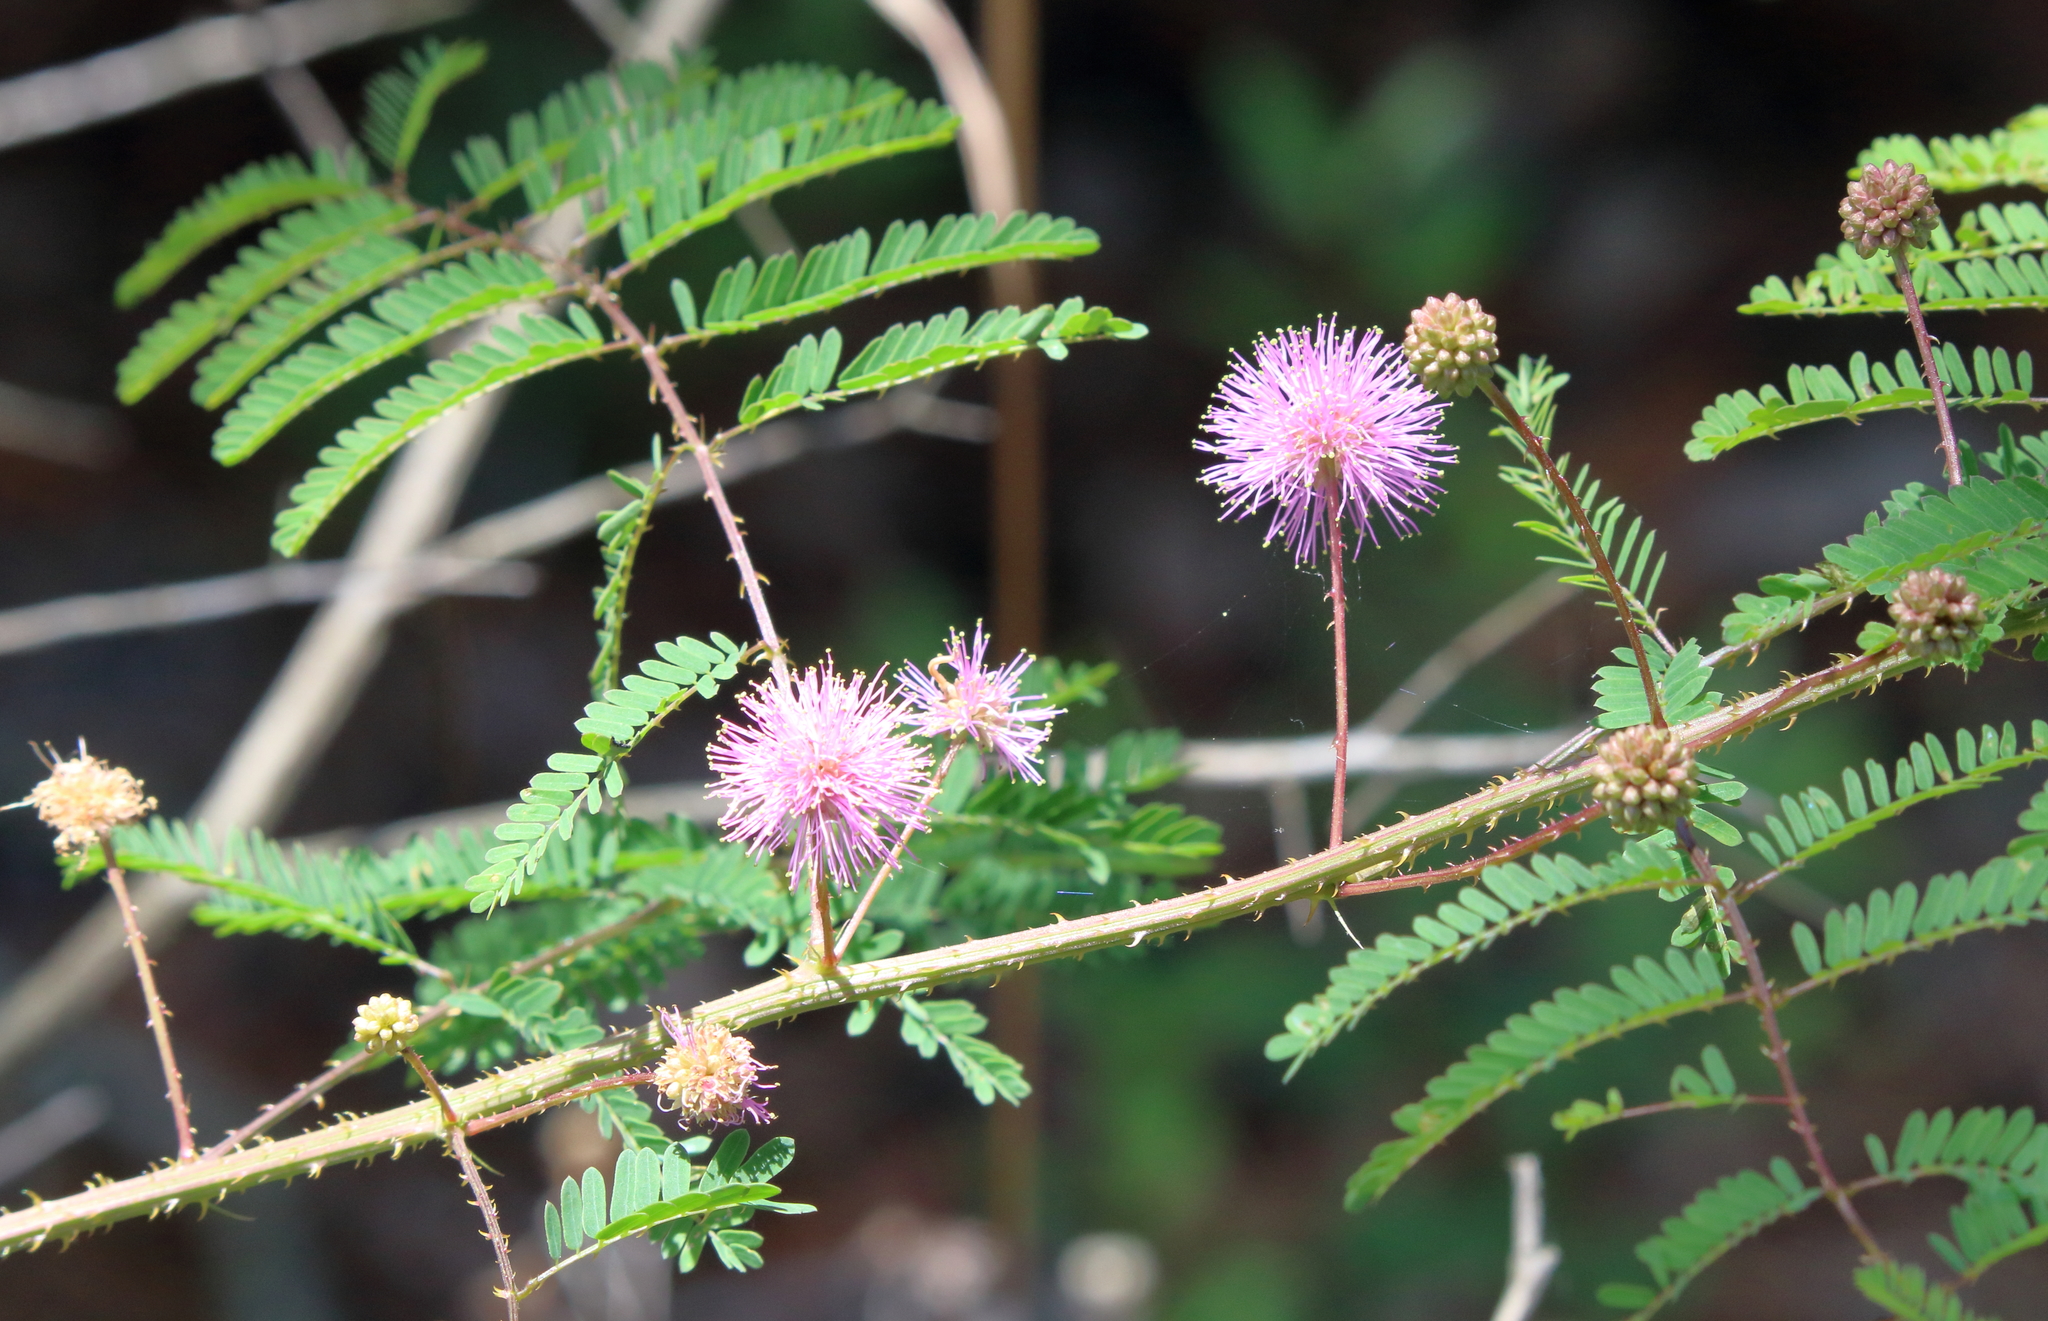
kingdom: Plantae
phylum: Tracheophyta
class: Magnoliopsida
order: Fabales
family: Fabaceae
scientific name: Fabaceae
